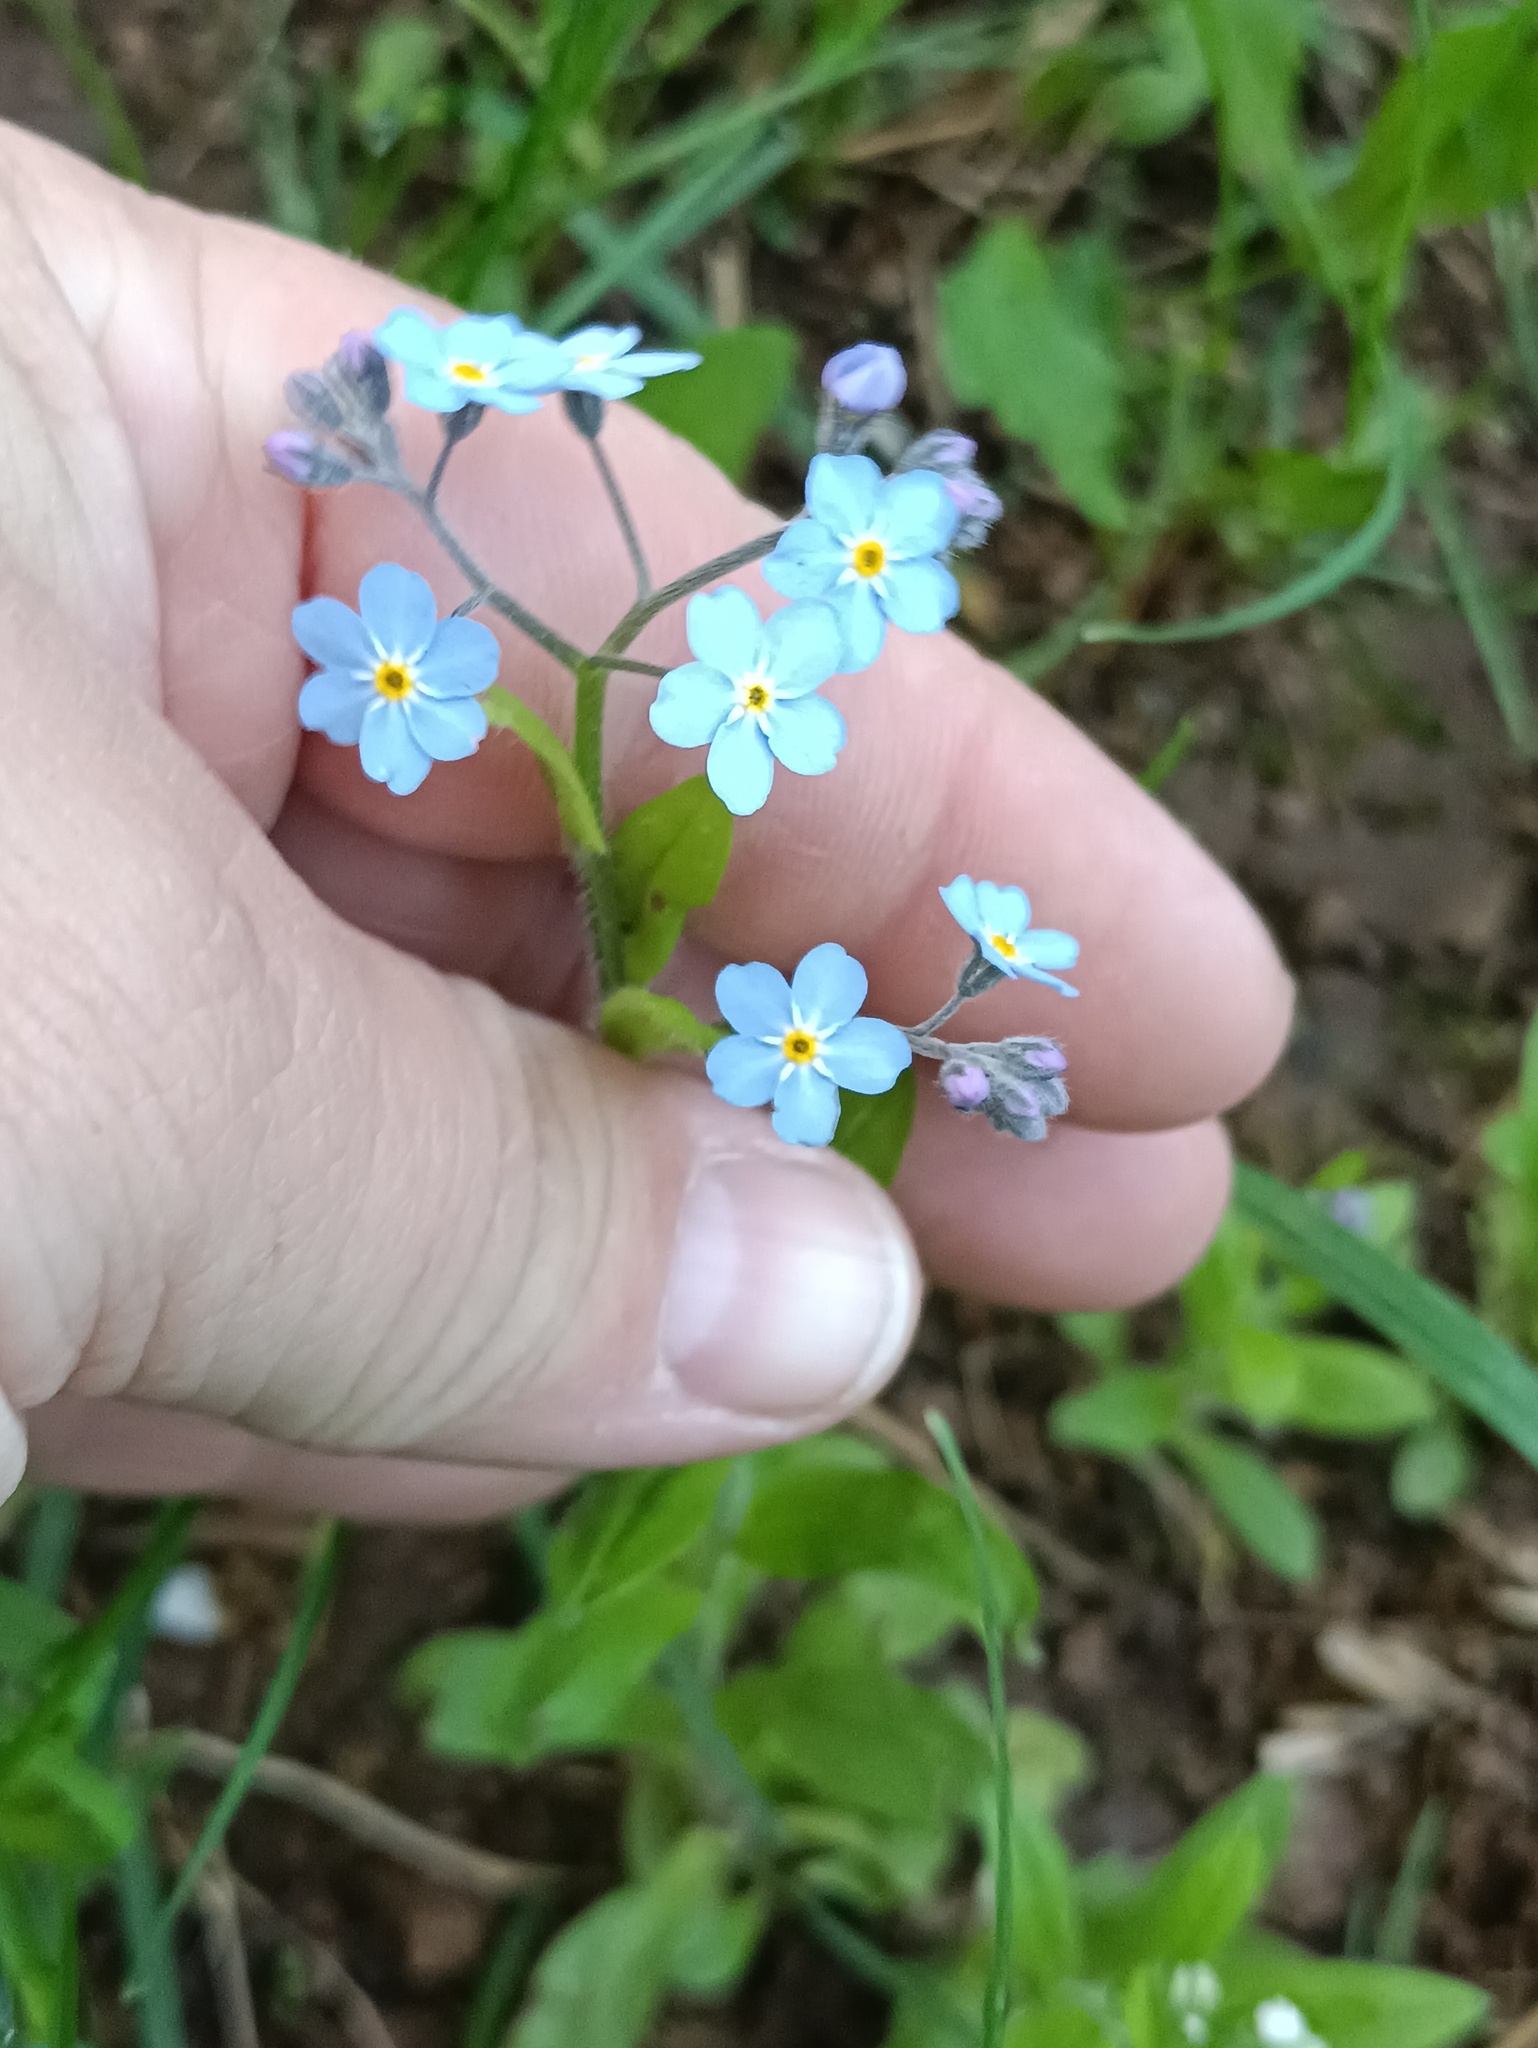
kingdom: Plantae
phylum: Tracheophyta
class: Magnoliopsida
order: Boraginales
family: Boraginaceae
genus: Myosotis
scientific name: Myosotis sylvatica
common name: Wood forget-me-not
